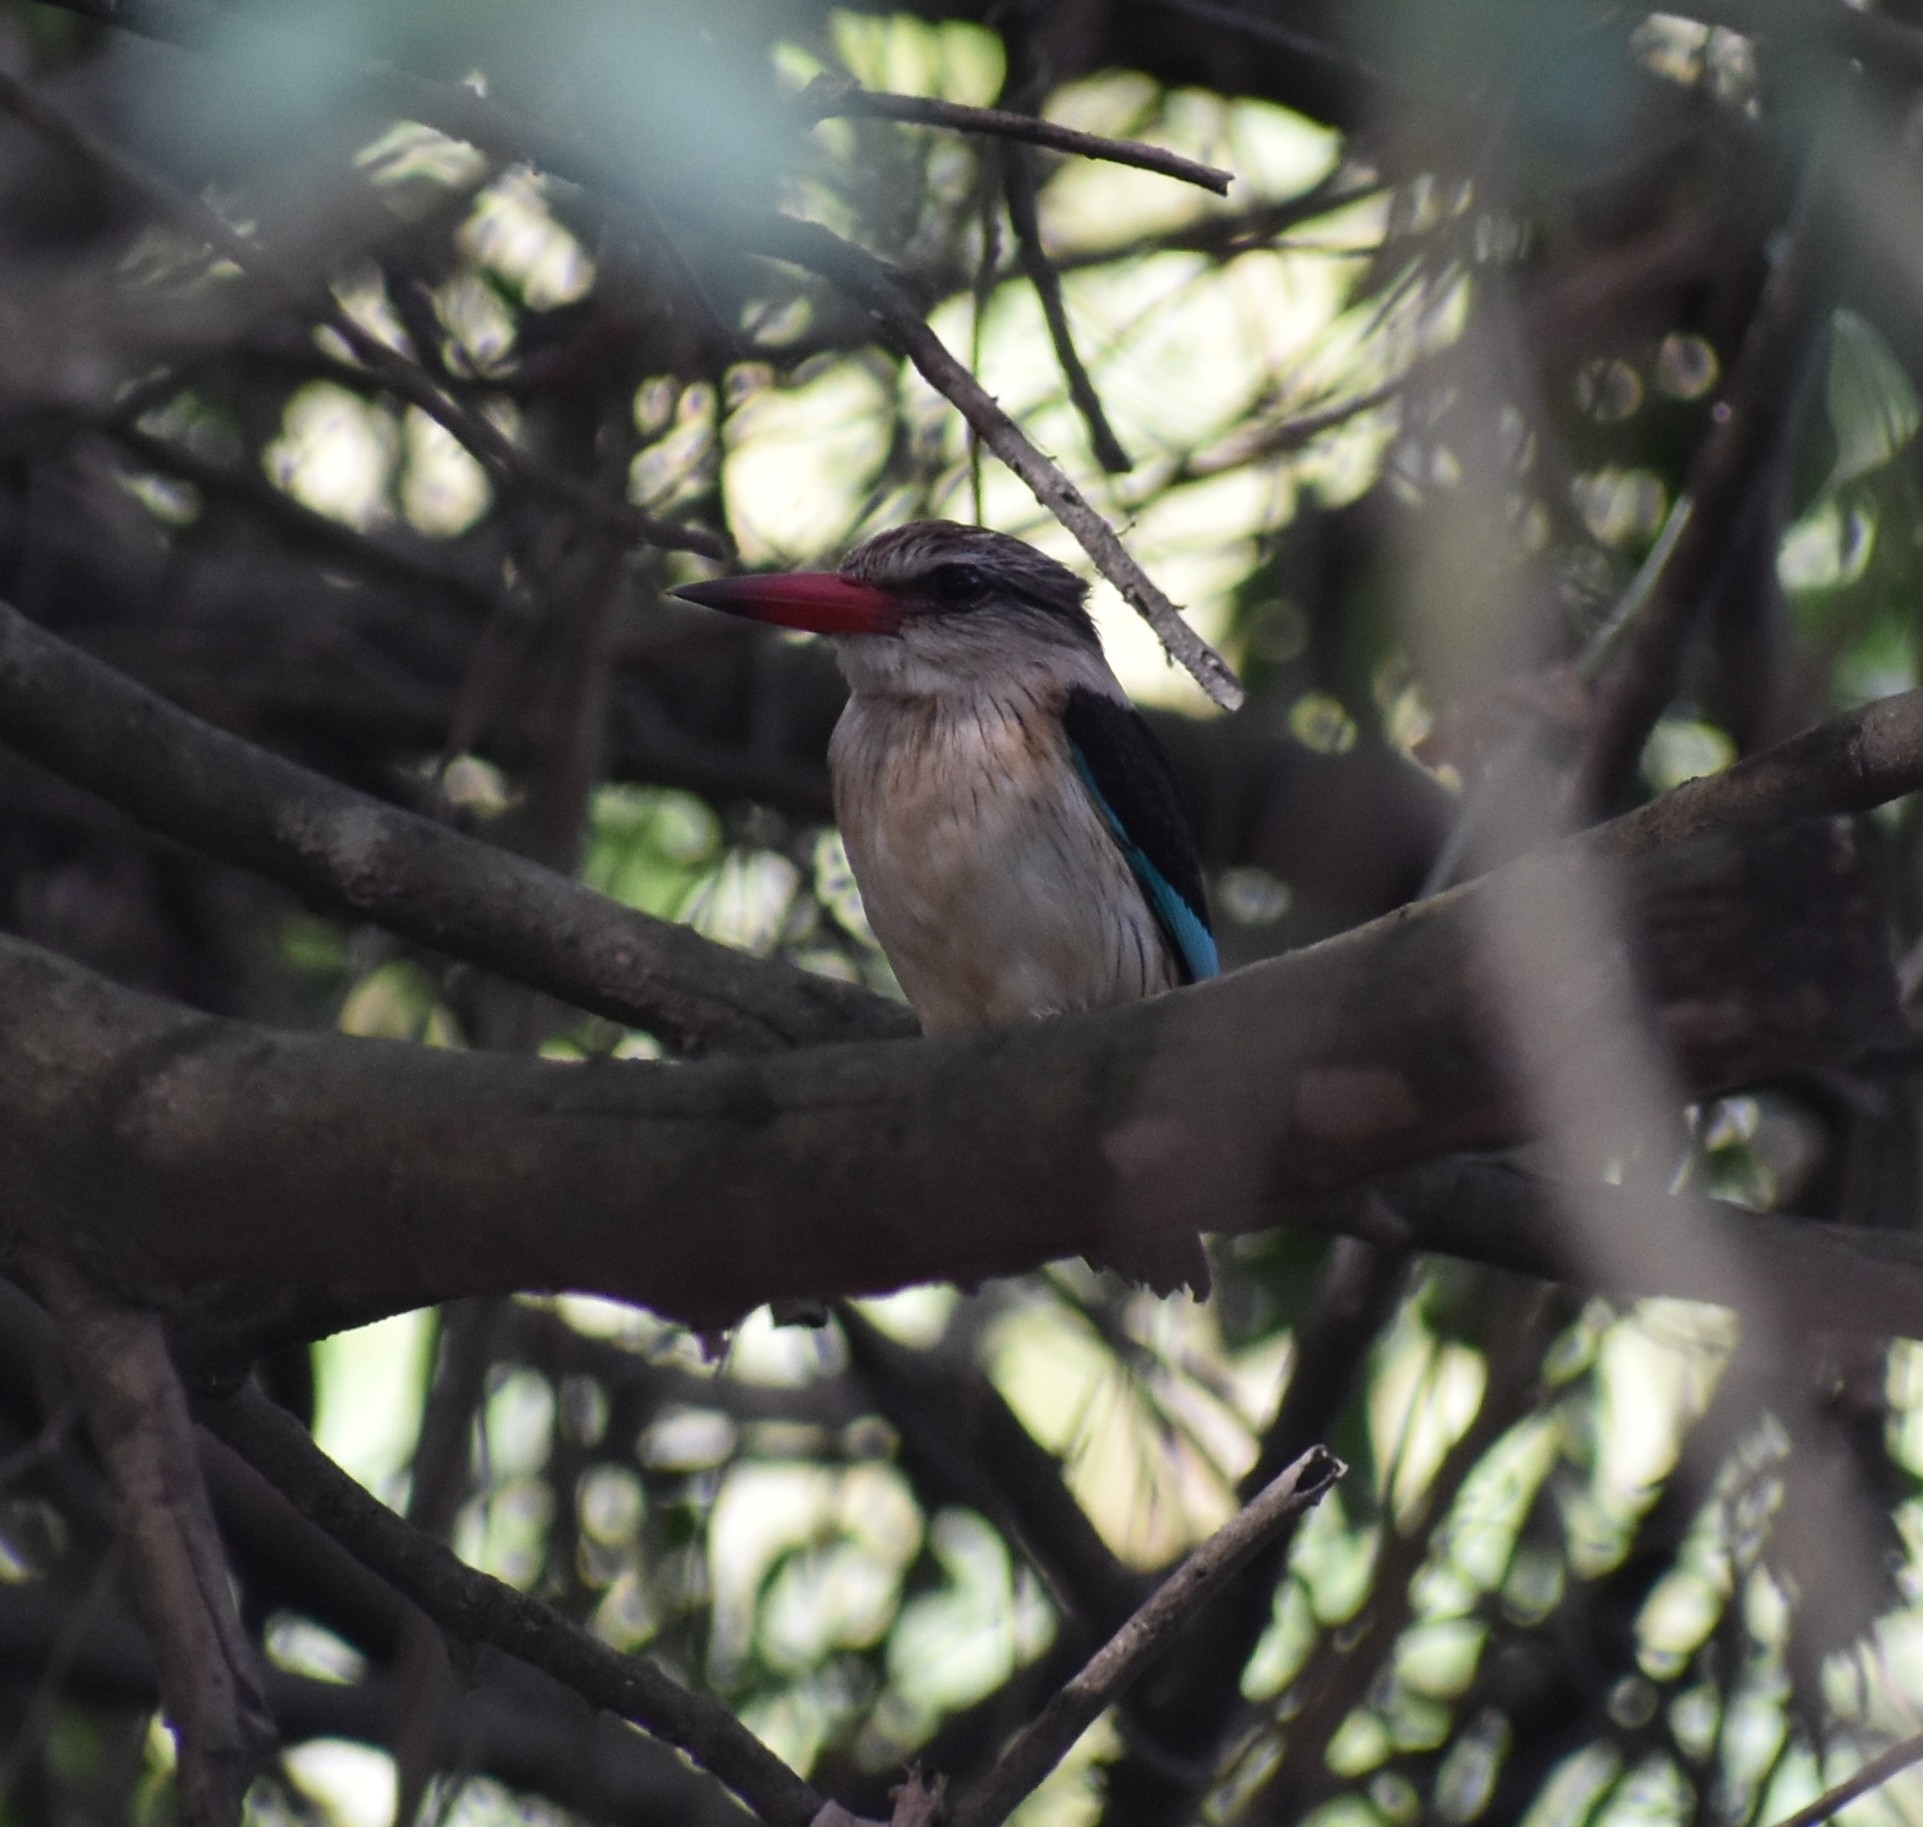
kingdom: Animalia
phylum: Chordata
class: Aves
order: Coraciiformes
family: Alcedinidae
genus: Halcyon
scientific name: Halcyon albiventris
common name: Brown-hooded kingfisher
